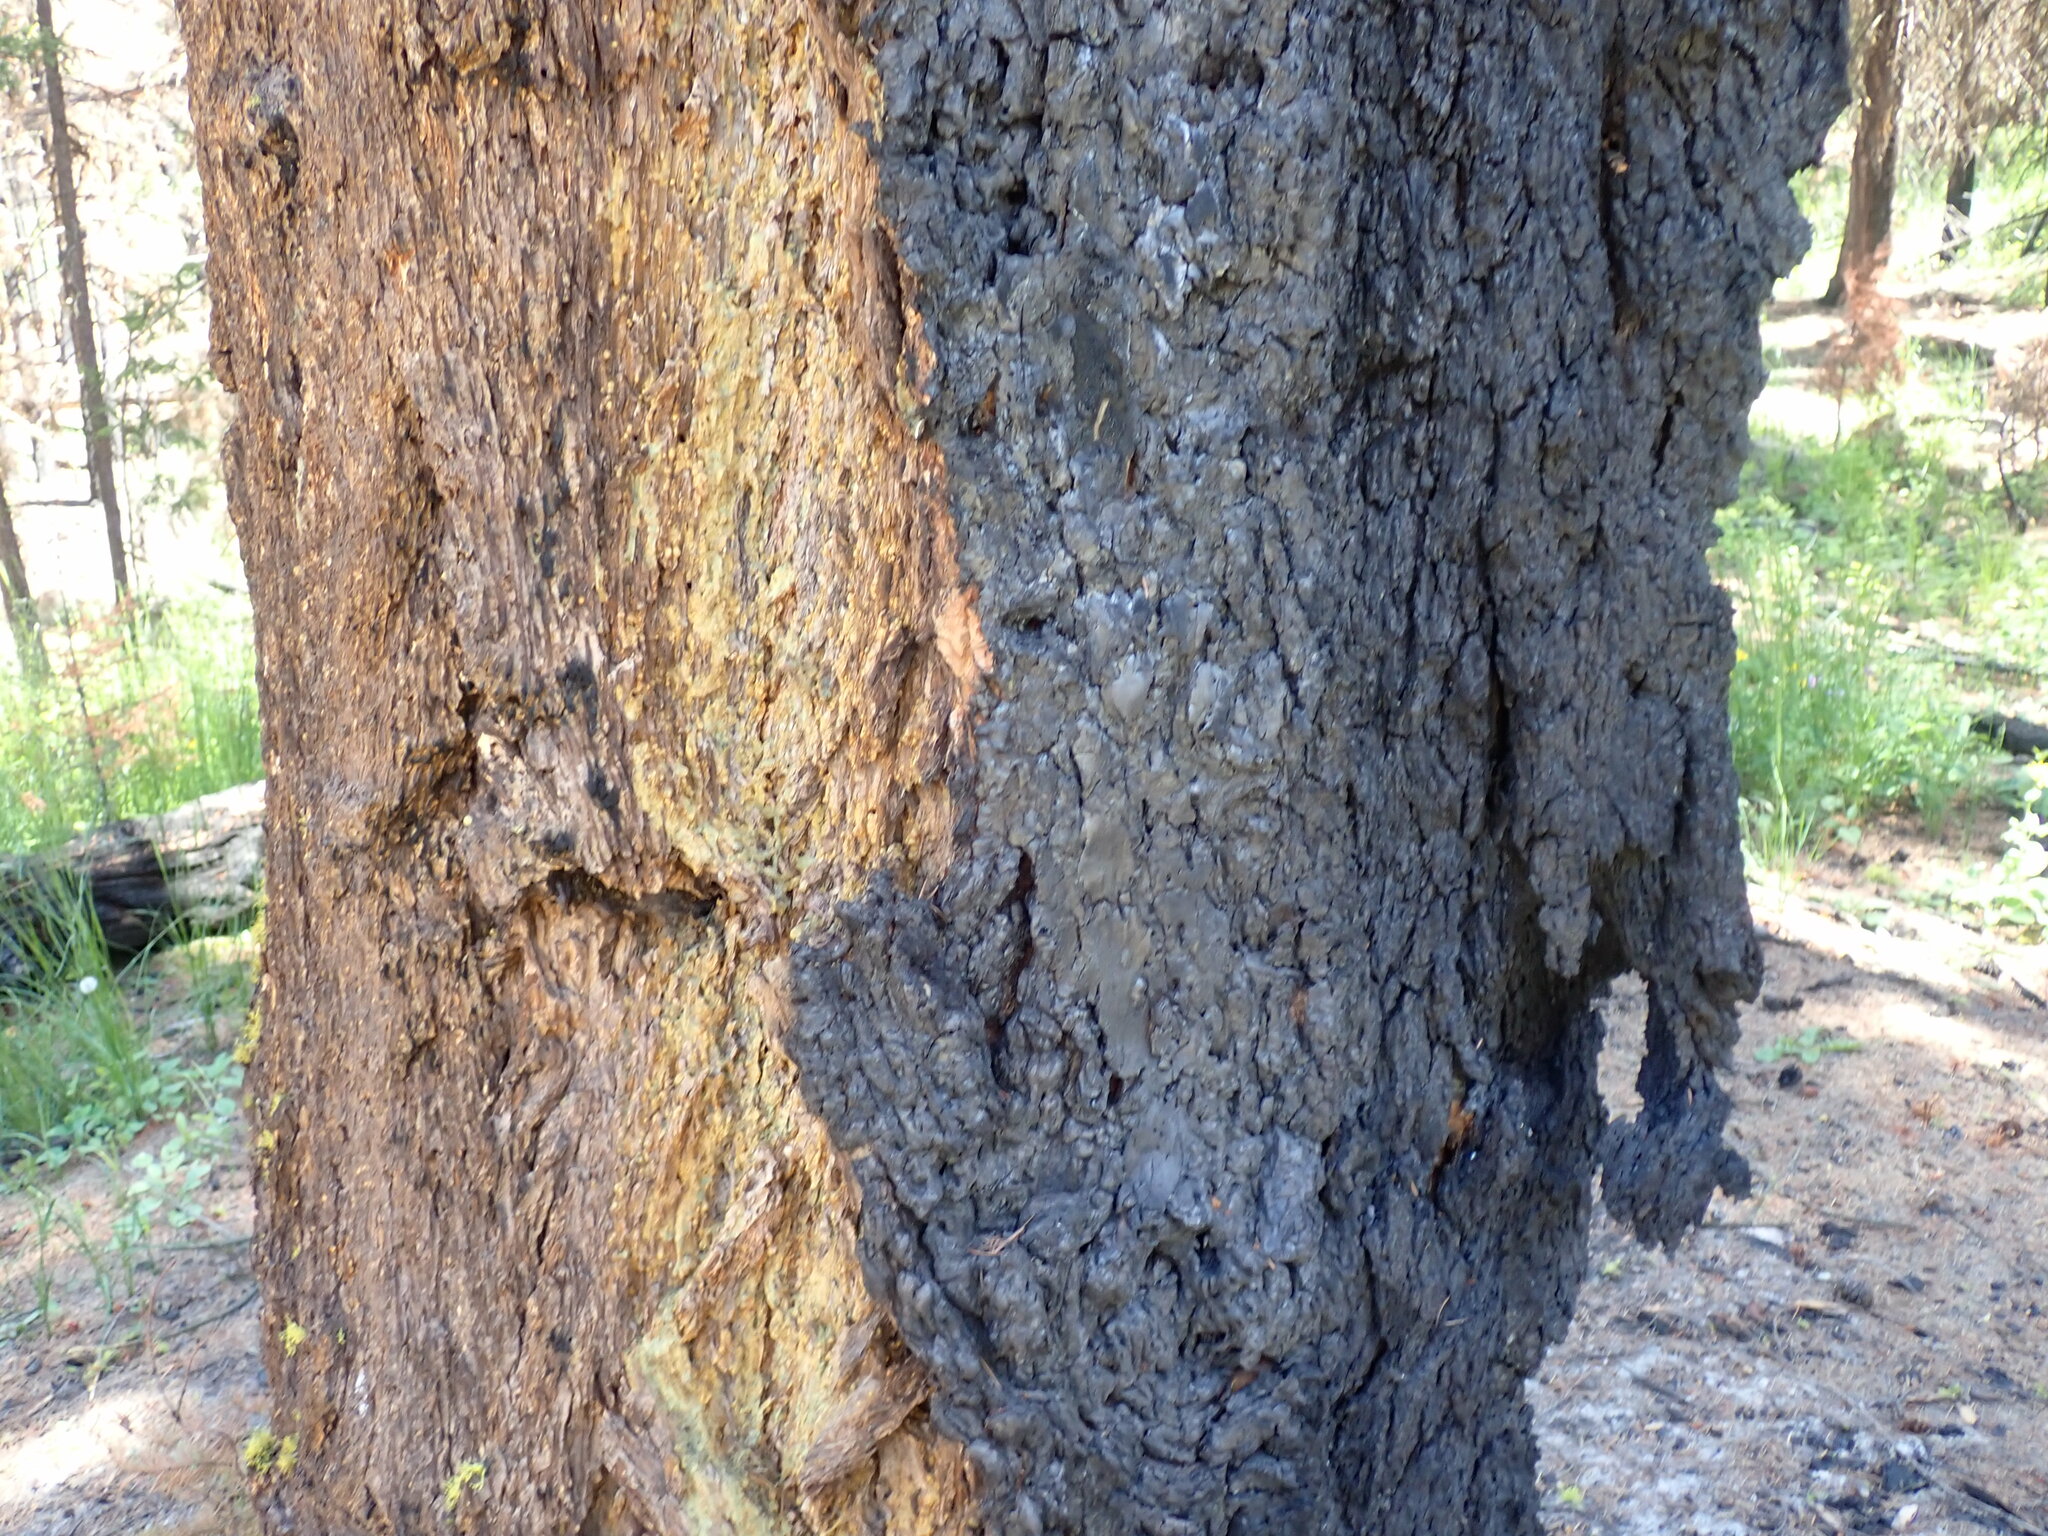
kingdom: Plantae
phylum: Tracheophyta
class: Pinopsida
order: Pinales
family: Pinaceae
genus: Pseudotsuga
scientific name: Pseudotsuga menziesii
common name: Douglas fir
